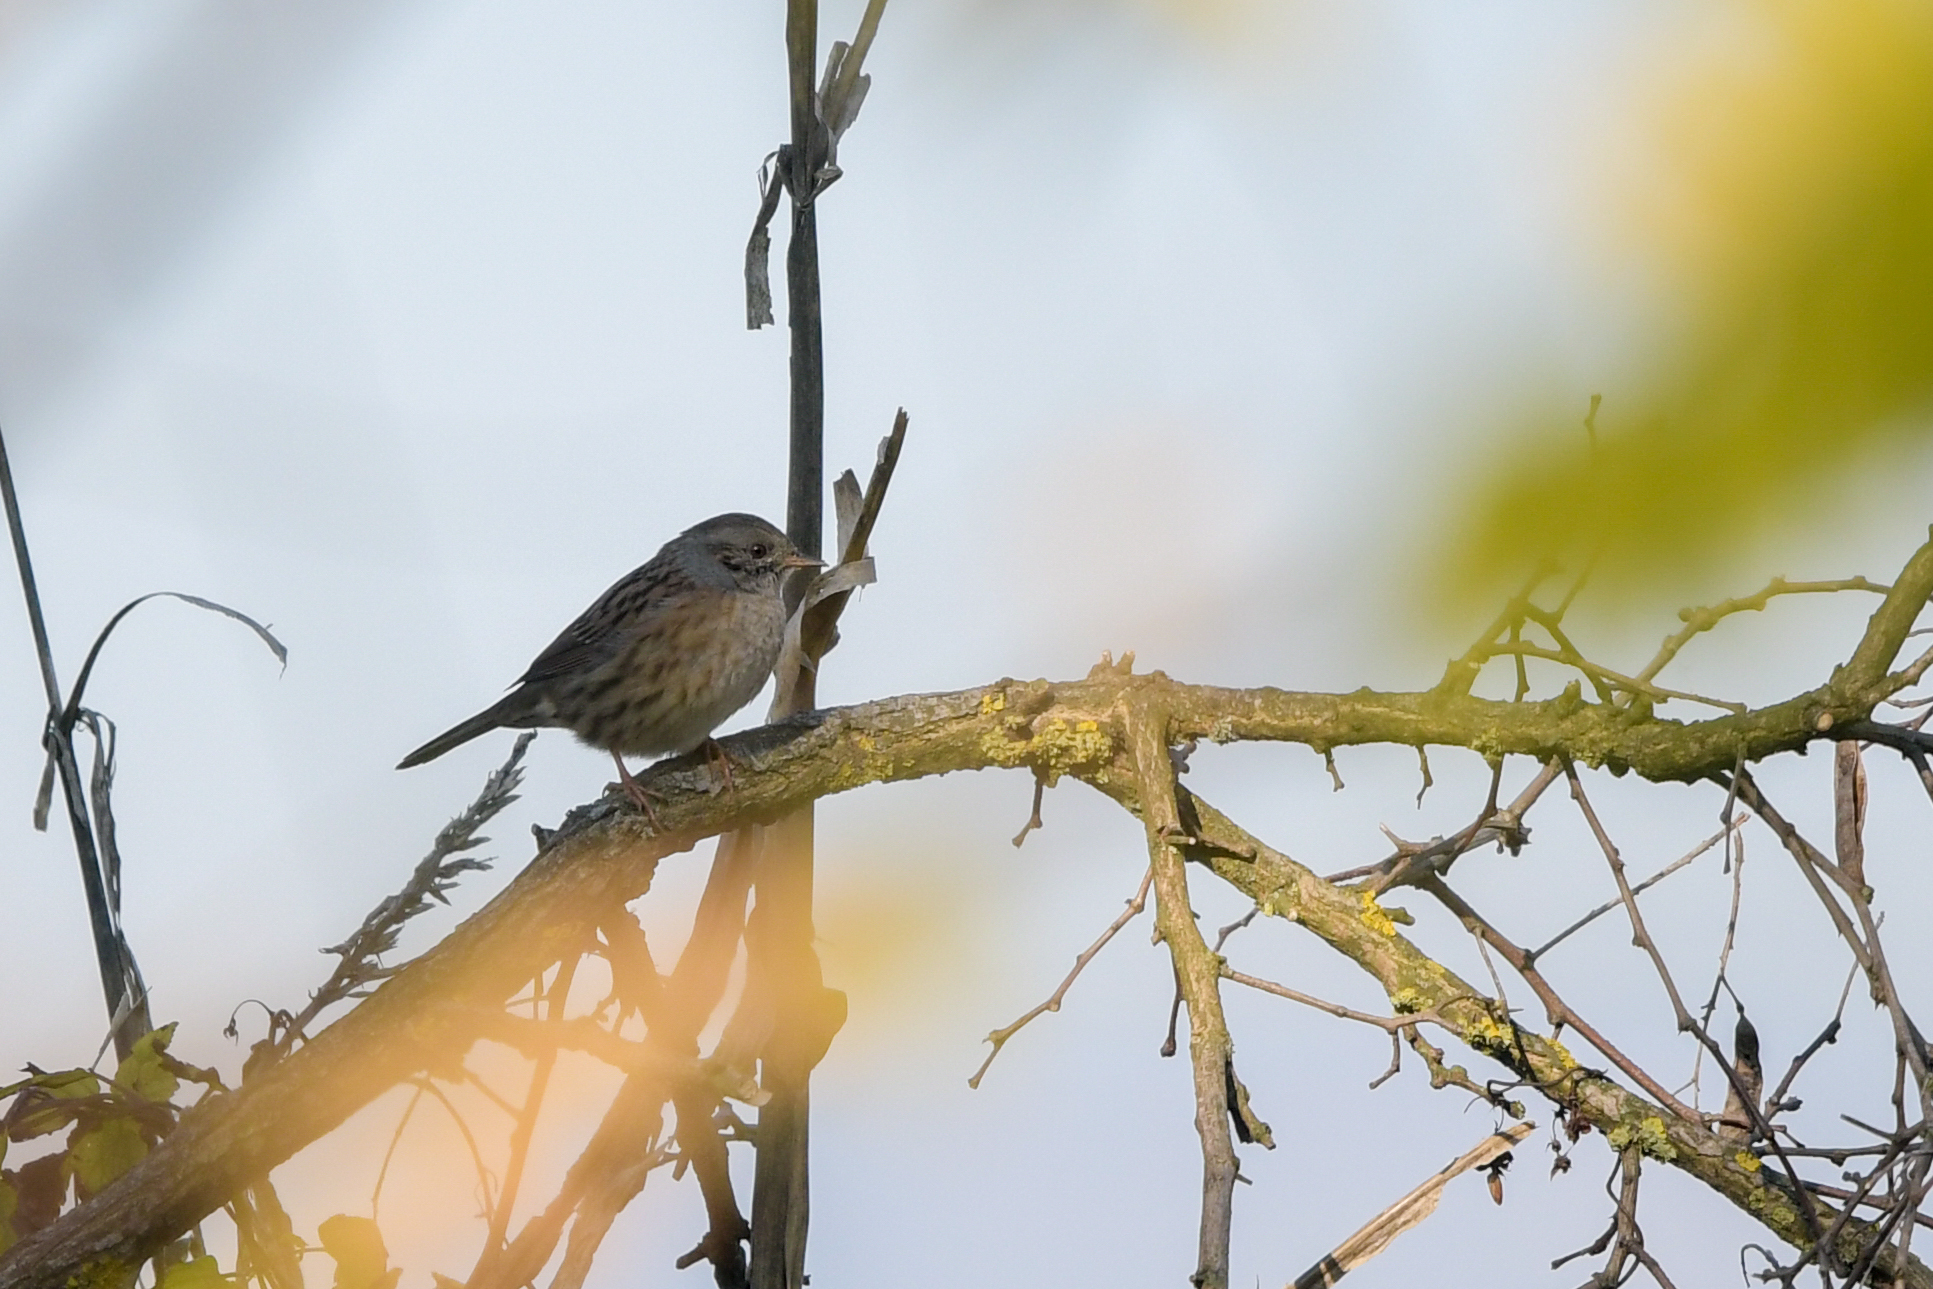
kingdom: Animalia
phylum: Chordata
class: Aves
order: Passeriformes
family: Prunellidae
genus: Prunella
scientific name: Prunella modularis
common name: Dunnock
